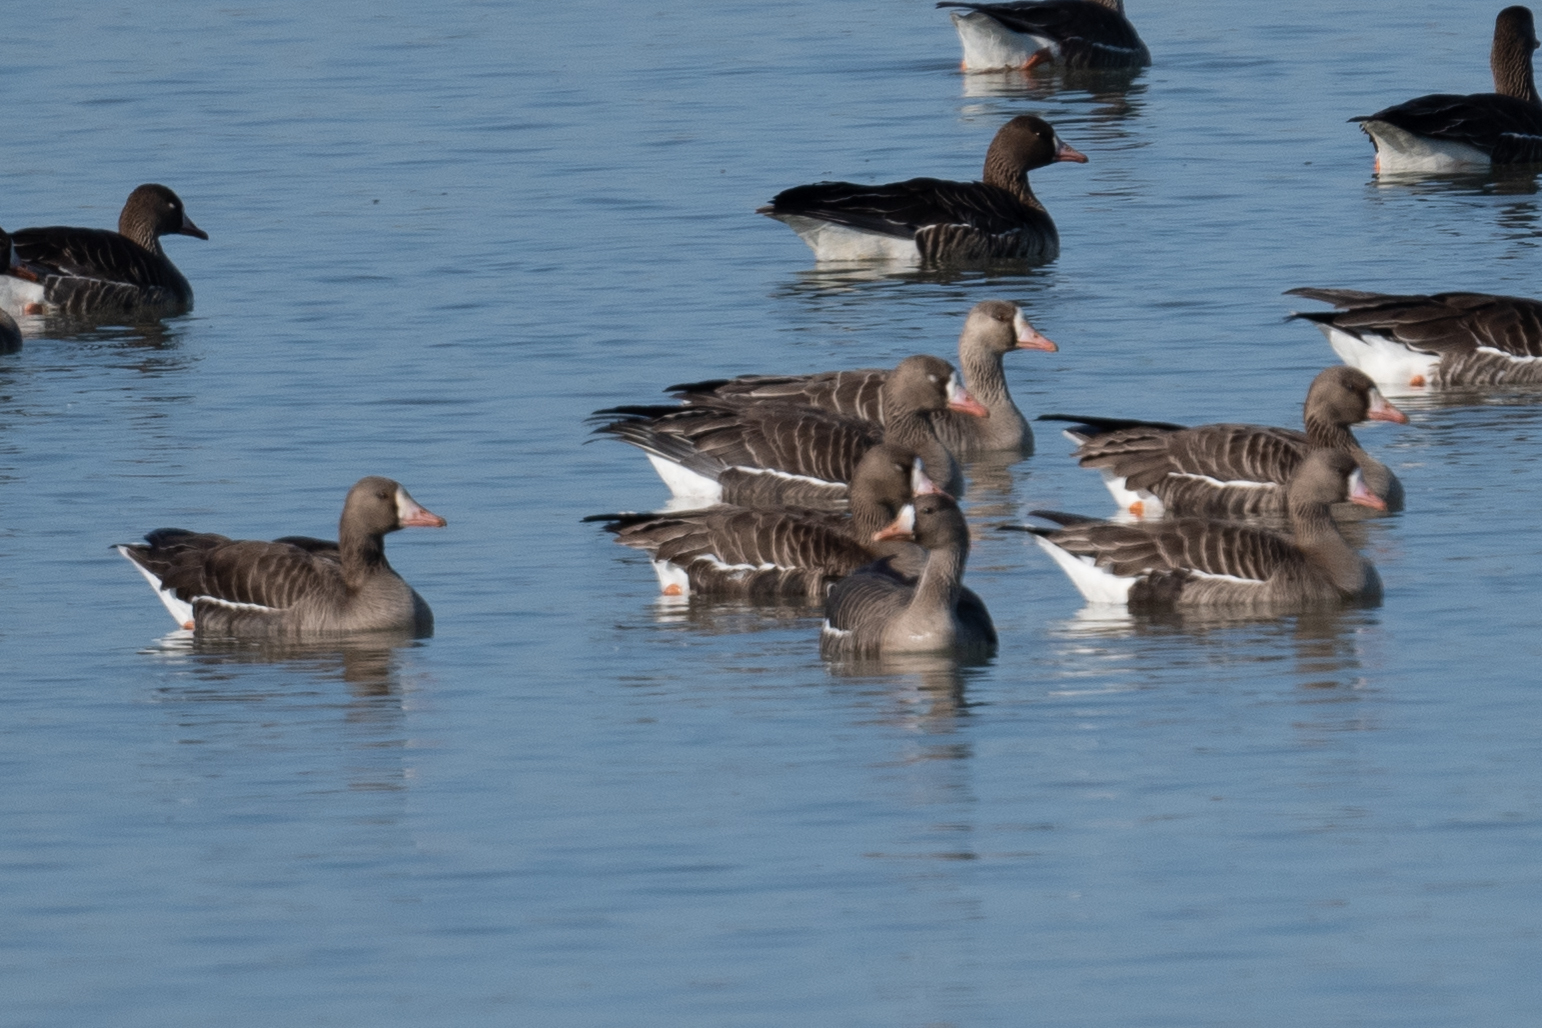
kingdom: Animalia
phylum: Chordata
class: Aves
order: Anseriformes
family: Anatidae
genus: Anser
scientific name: Anser albifrons
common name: Greater white-fronted goose
